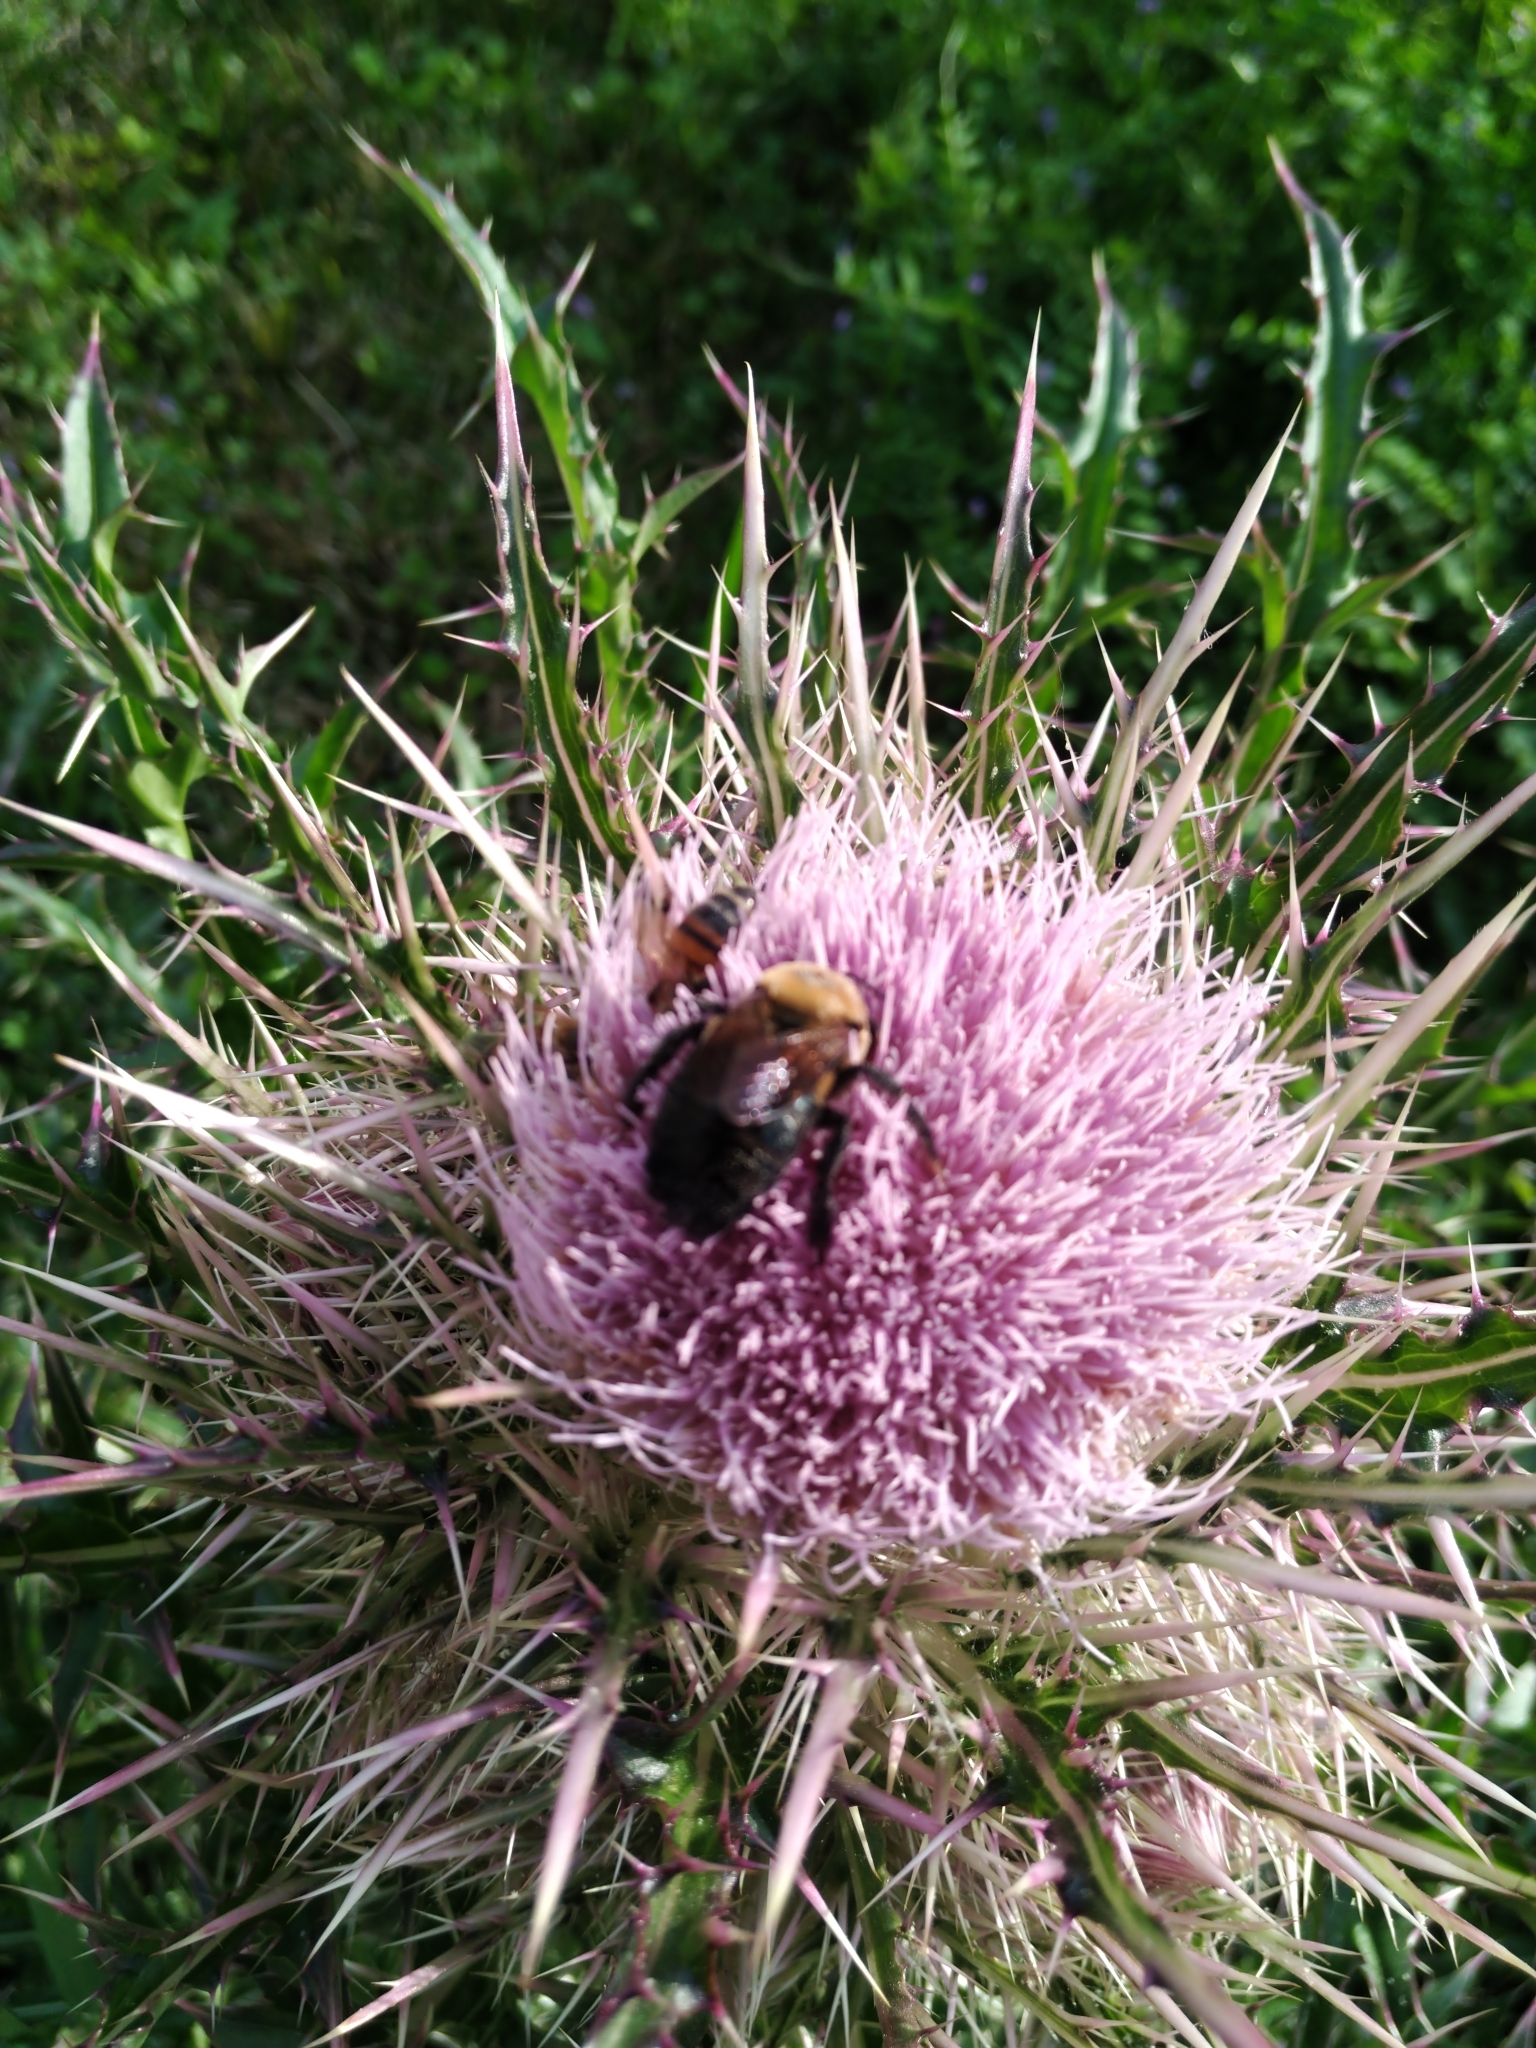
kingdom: Animalia
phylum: Arthropoda
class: Insecta
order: Hymenoptera
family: Apidae
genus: Xylocopa
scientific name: Xylocopa virginica
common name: Carpenter bee
